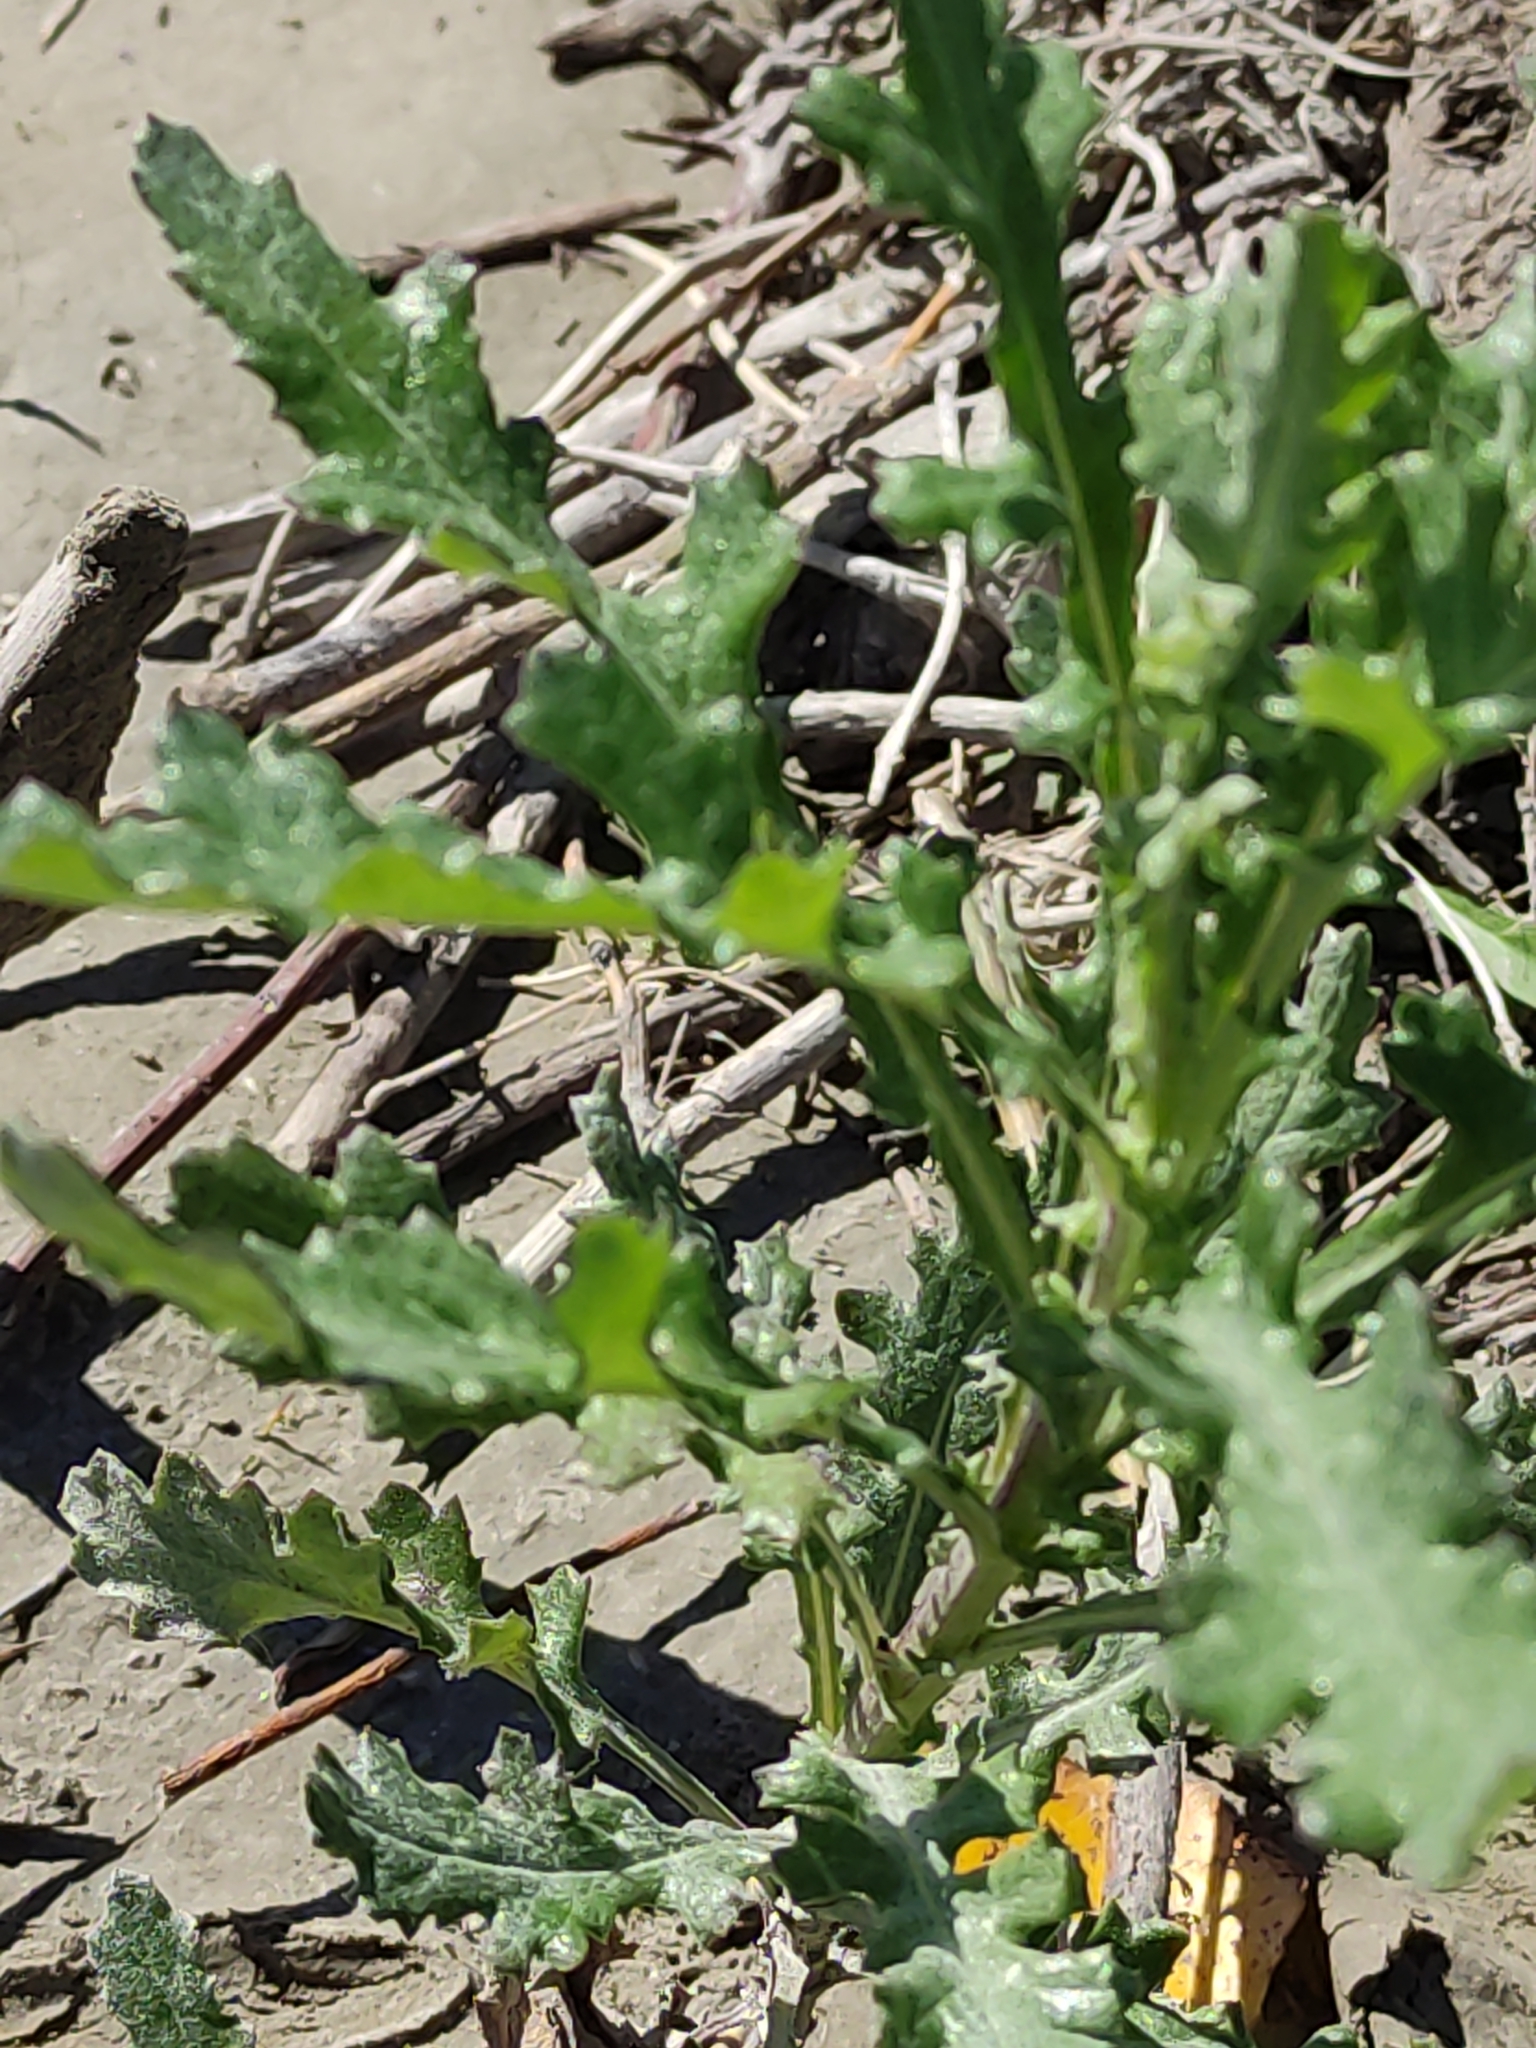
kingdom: Plantae
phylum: Tracheophyta
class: Magnoliopsida
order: Asterales
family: Asteraceae
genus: Senecio
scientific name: Senecio glomeratus
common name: Cutleaf burnweed
